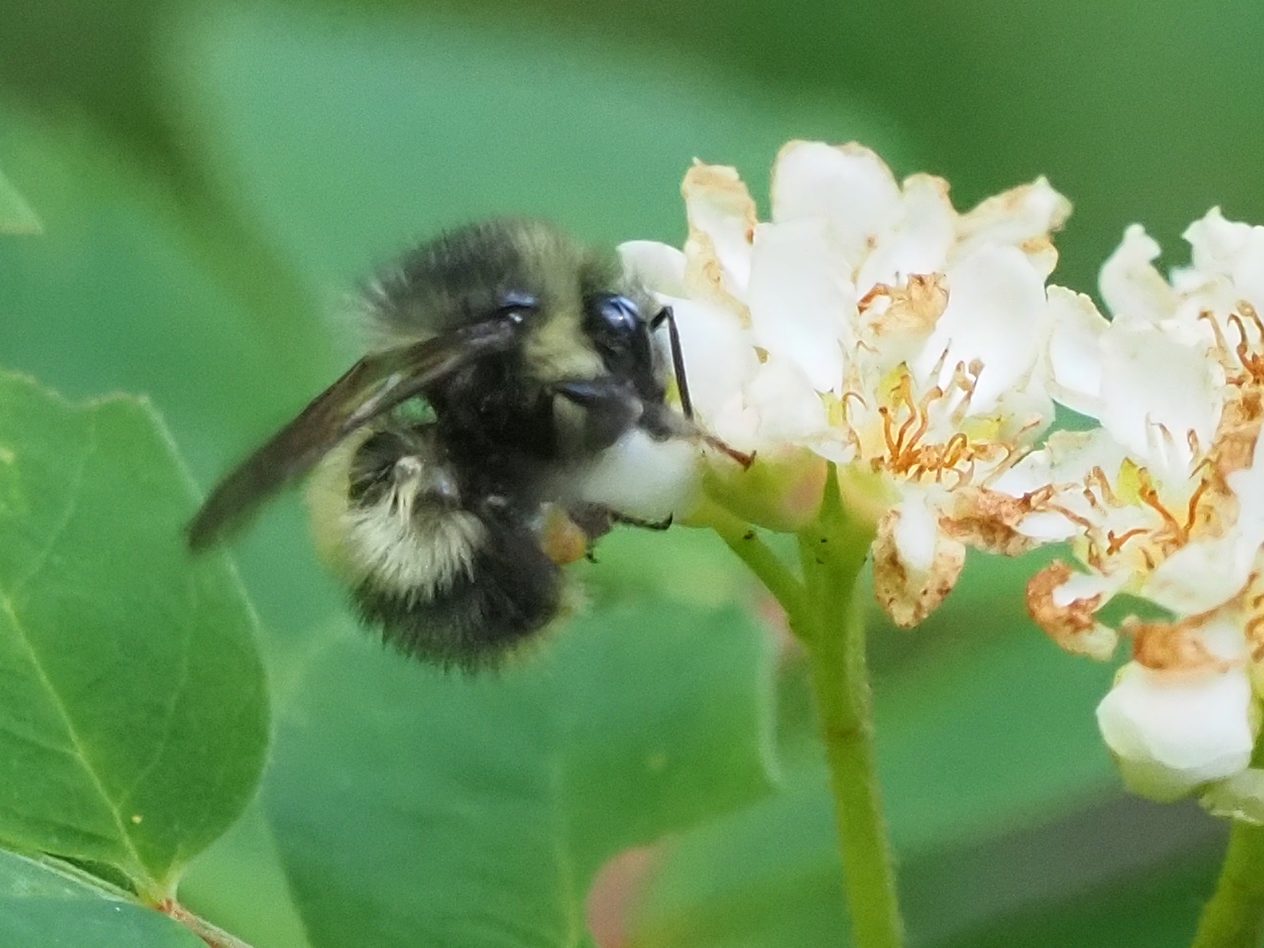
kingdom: Animalia
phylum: Arthropoda
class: Insecta
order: Hymenoptera
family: Apidae
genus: Bombus
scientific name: Bombus sitkensis
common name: Sitka bumble bee
